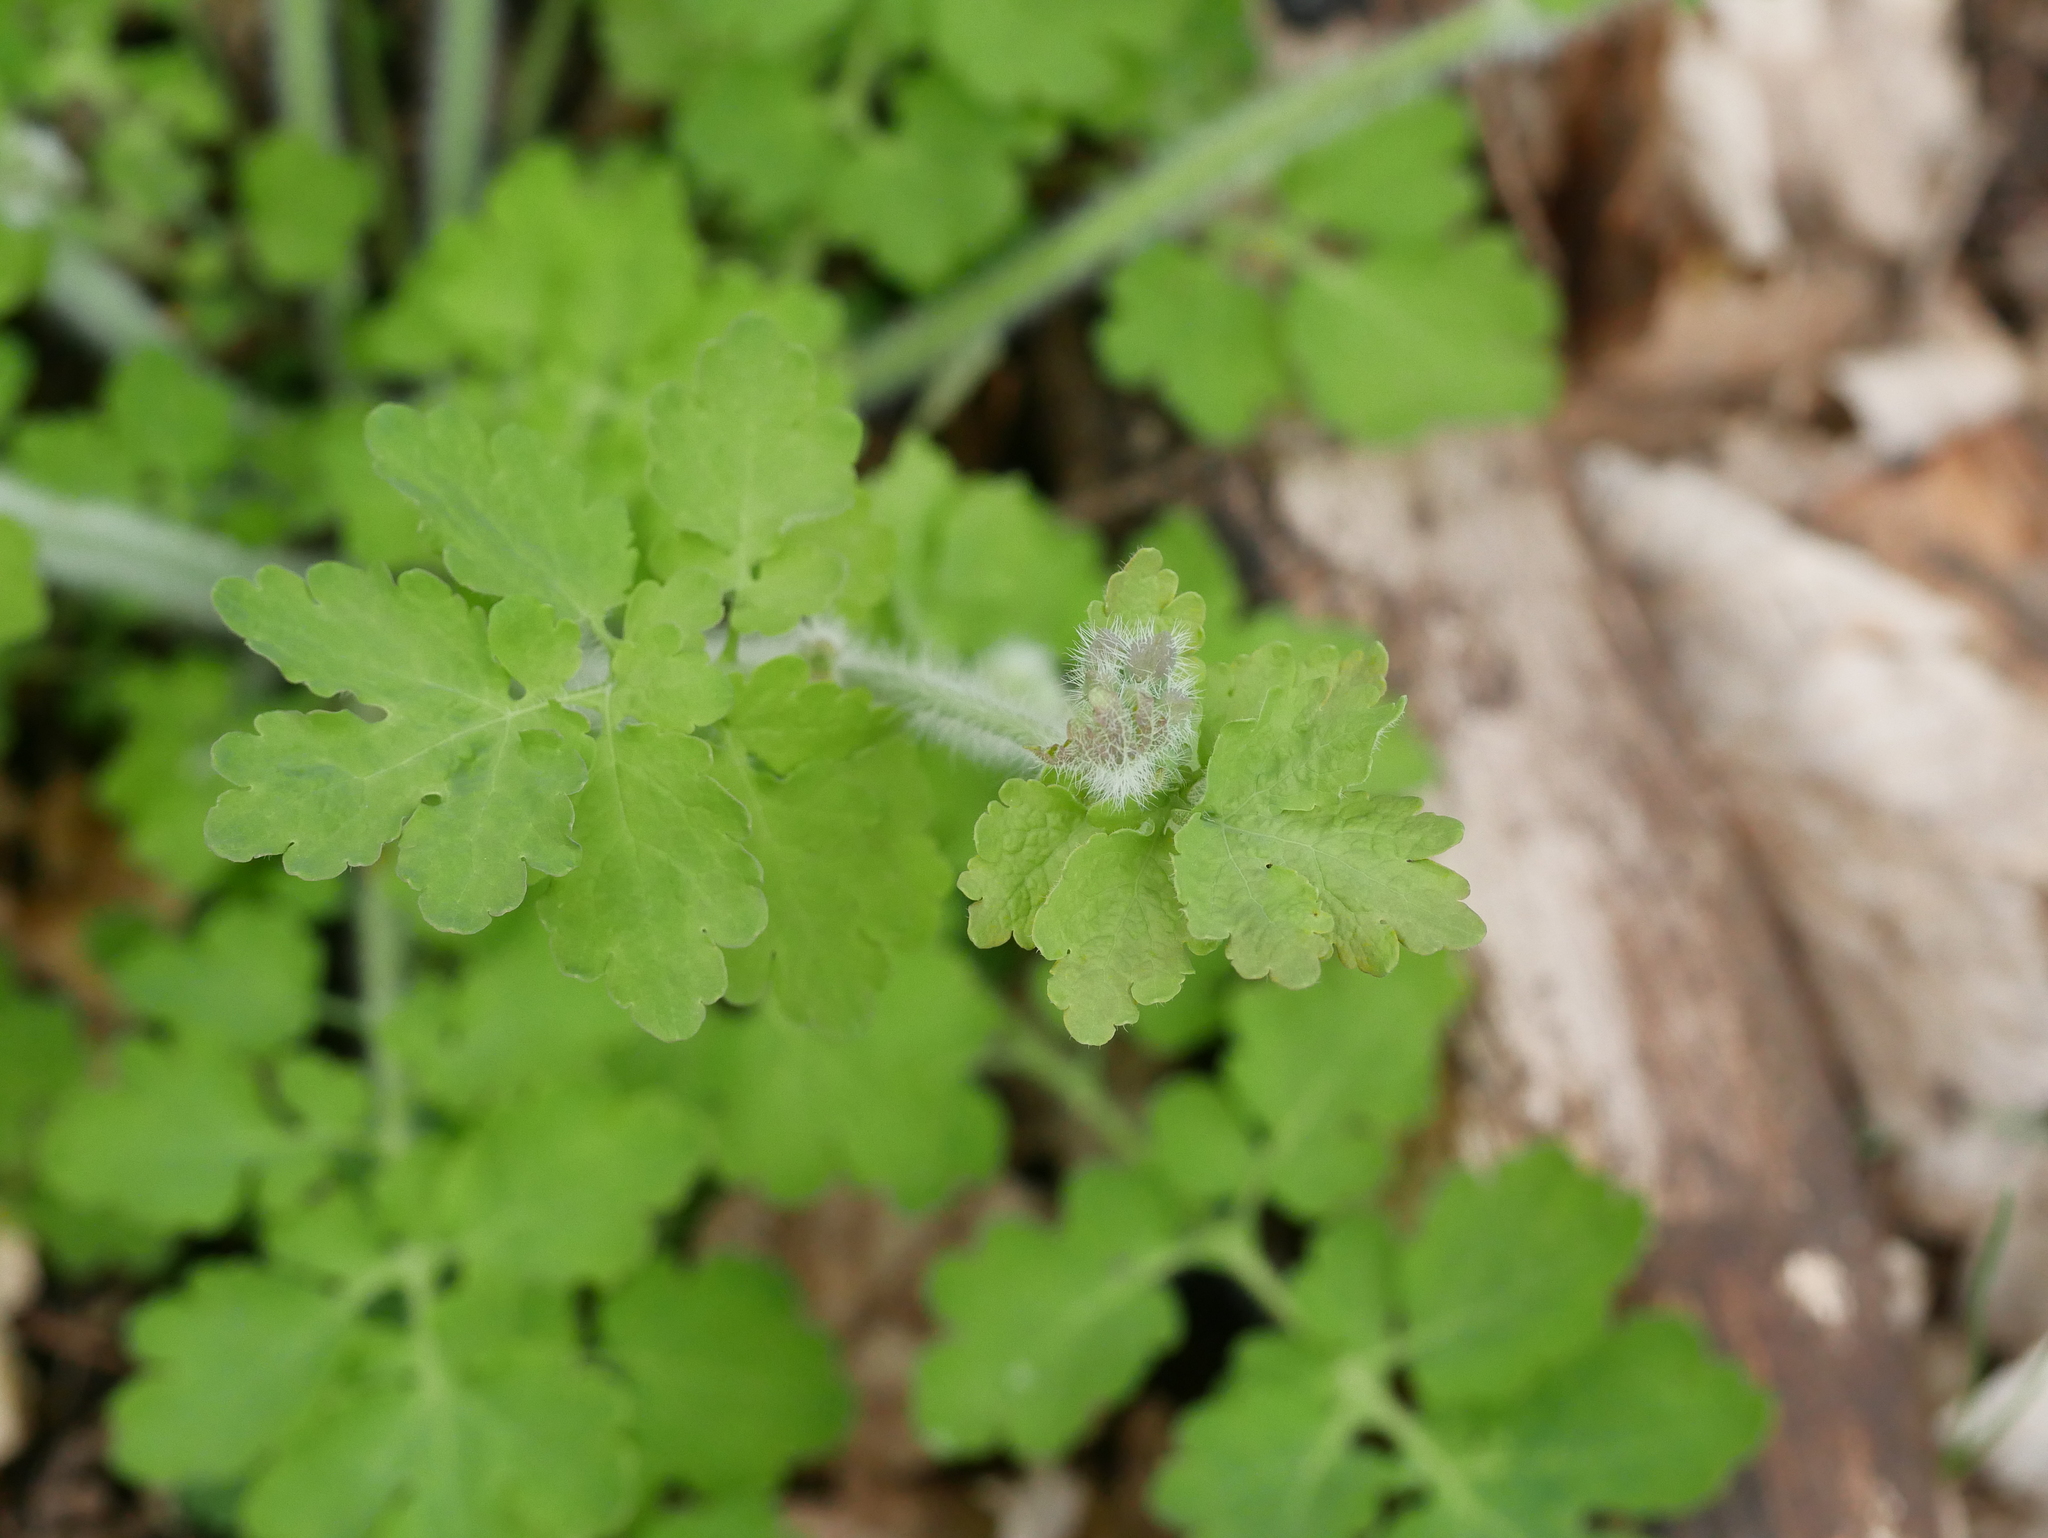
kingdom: Plantae
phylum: Tracheophyta
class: Magnoliopsida
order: Ranunculales
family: Papaveraceae
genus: Chelidonium
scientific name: Chelidonium majus
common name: Greater celandine
